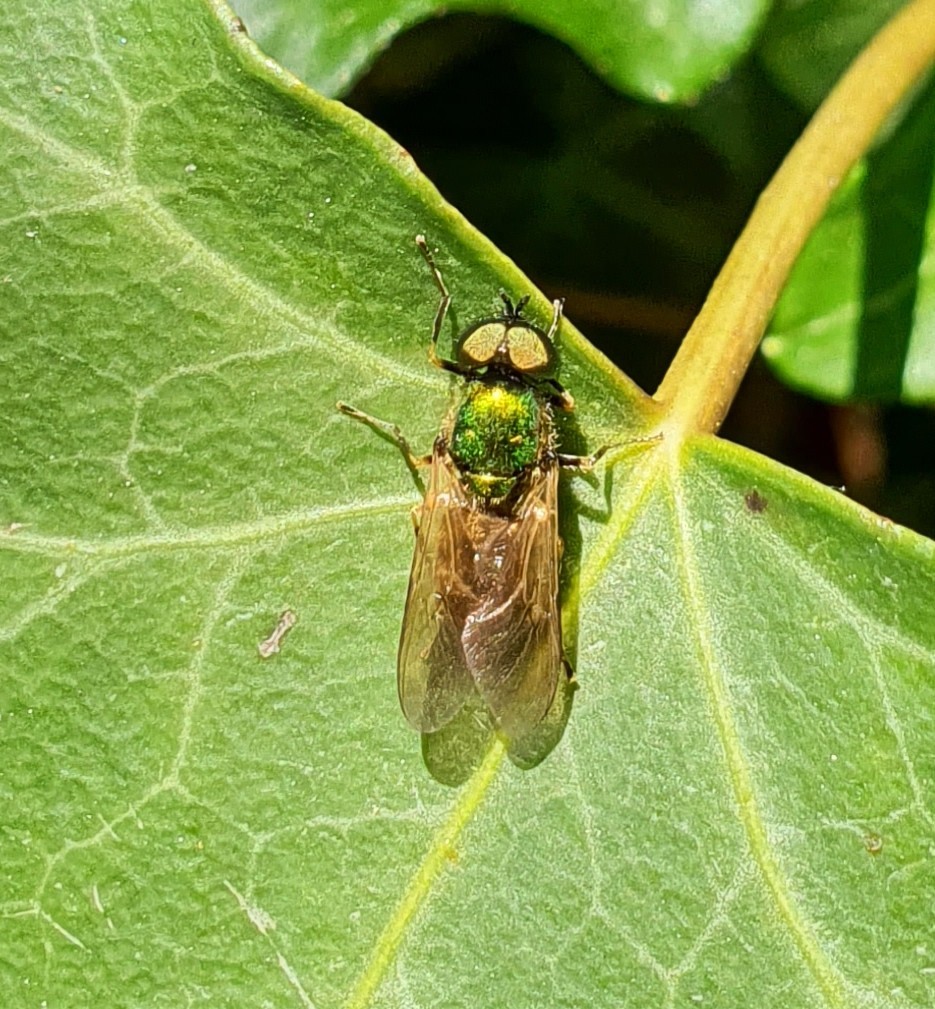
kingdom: Animalia
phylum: Arthropoda
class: Insecta
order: Diptera
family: Stratiomyidae
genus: Chloromyia
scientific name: Chloromyia formosa
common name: Soldier fly
